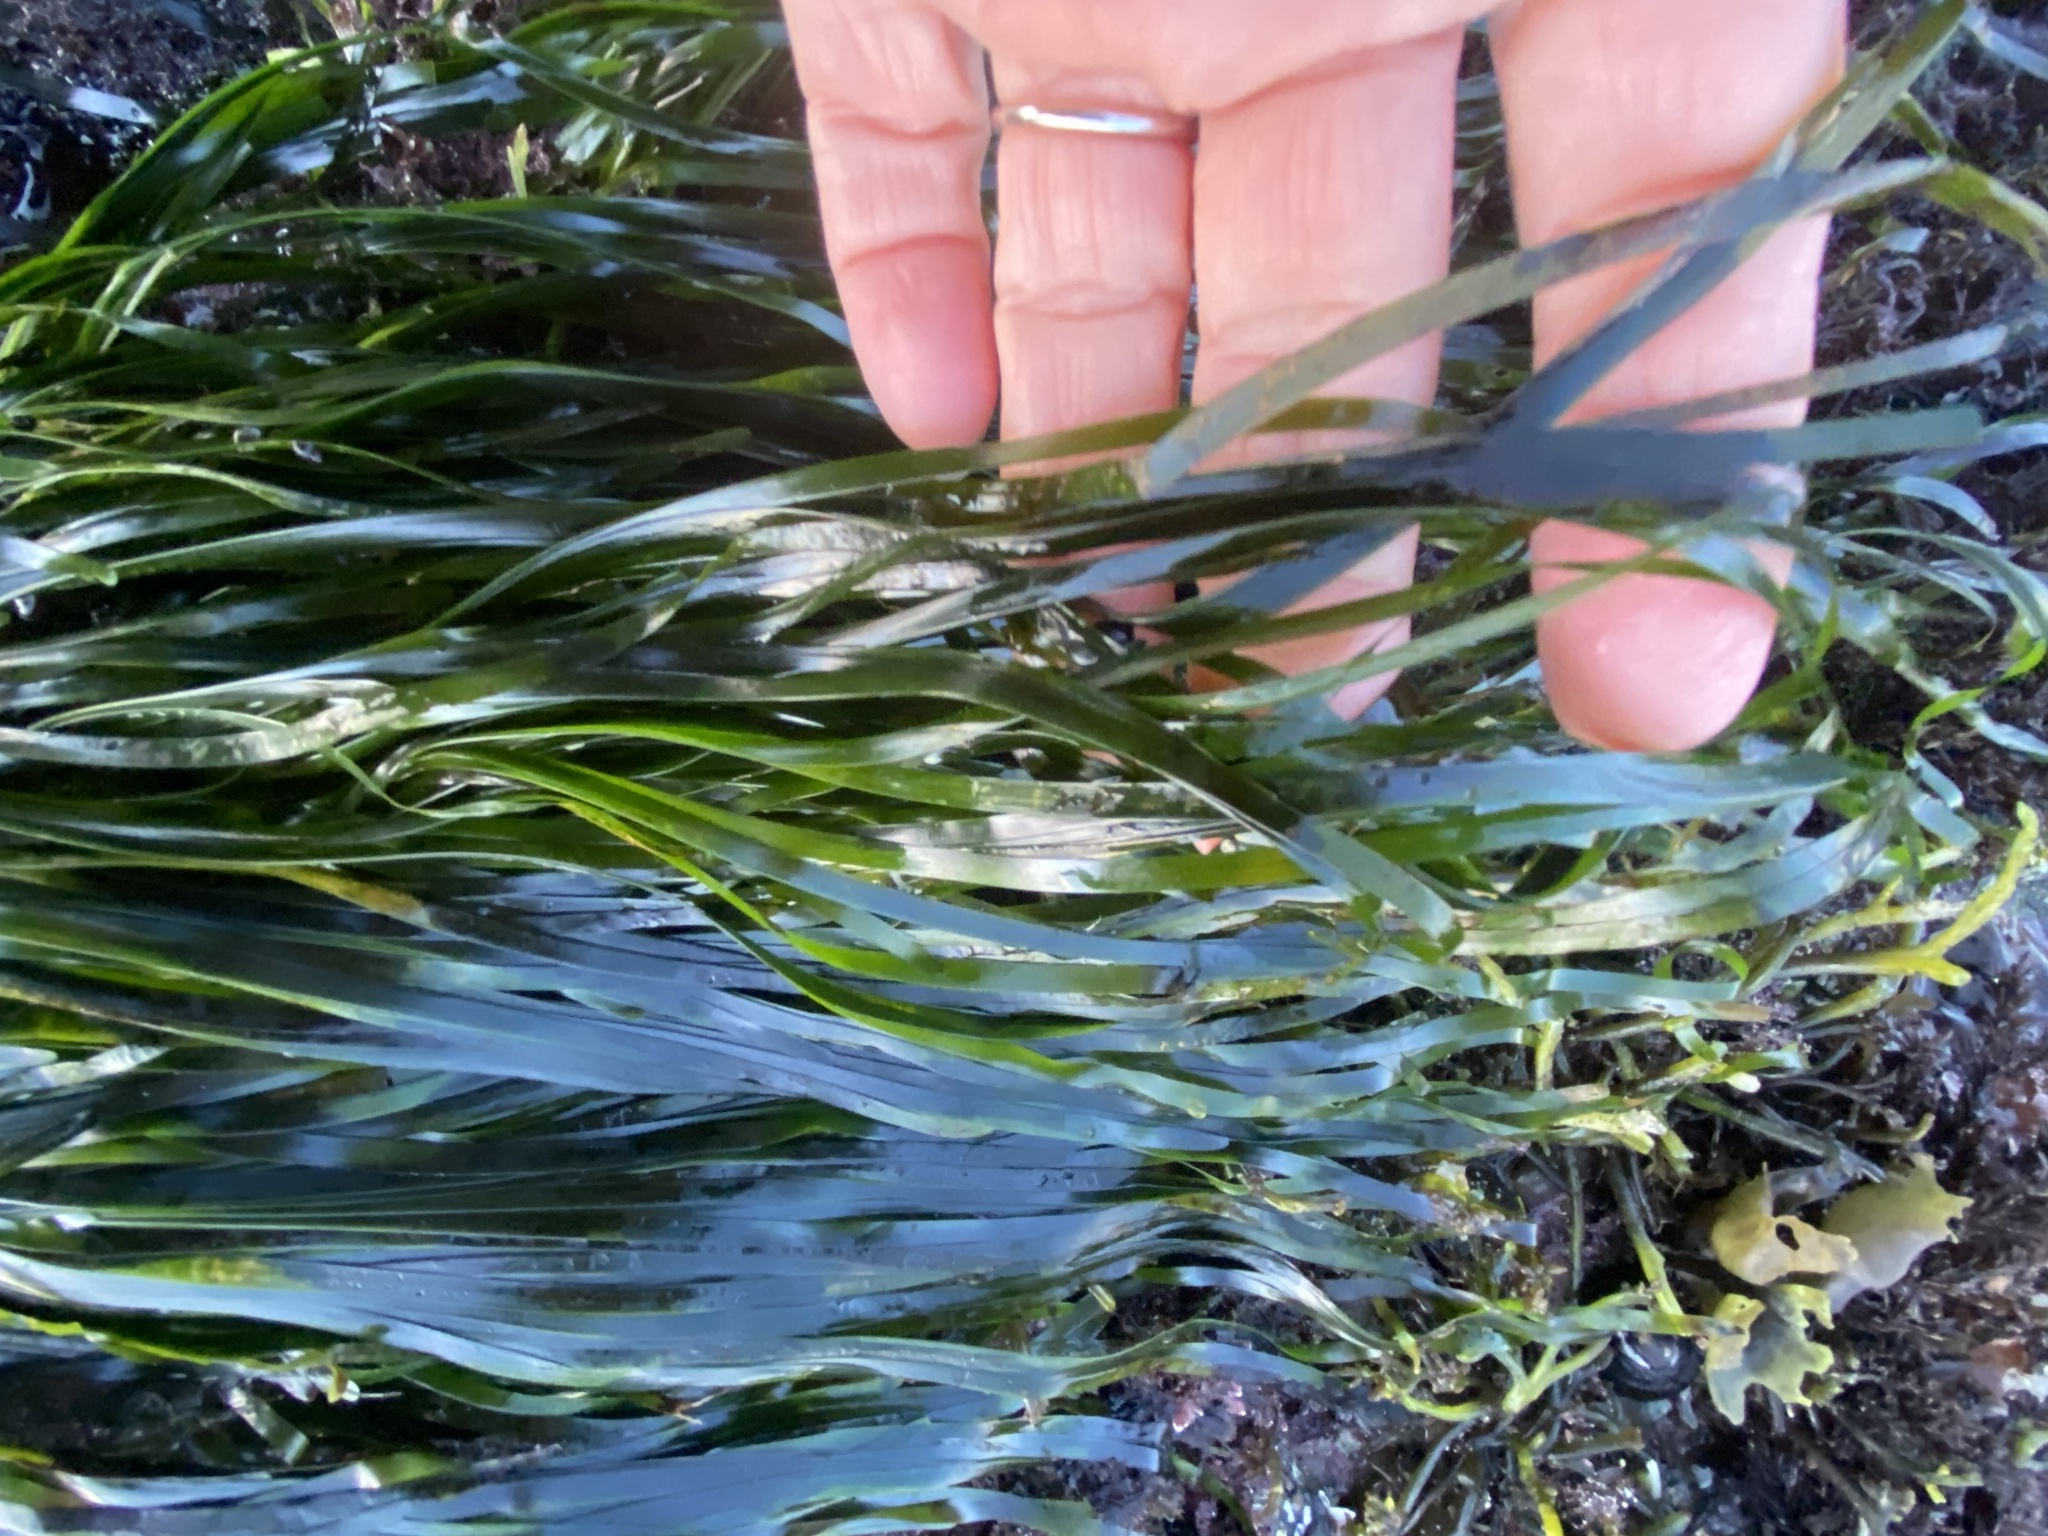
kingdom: Plantae
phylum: Tracheophyta
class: Liliopsida
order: Alismatales
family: Zosteraceae
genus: Phyllospadix
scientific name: Phyllospadix scouleri
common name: Species code: ps
